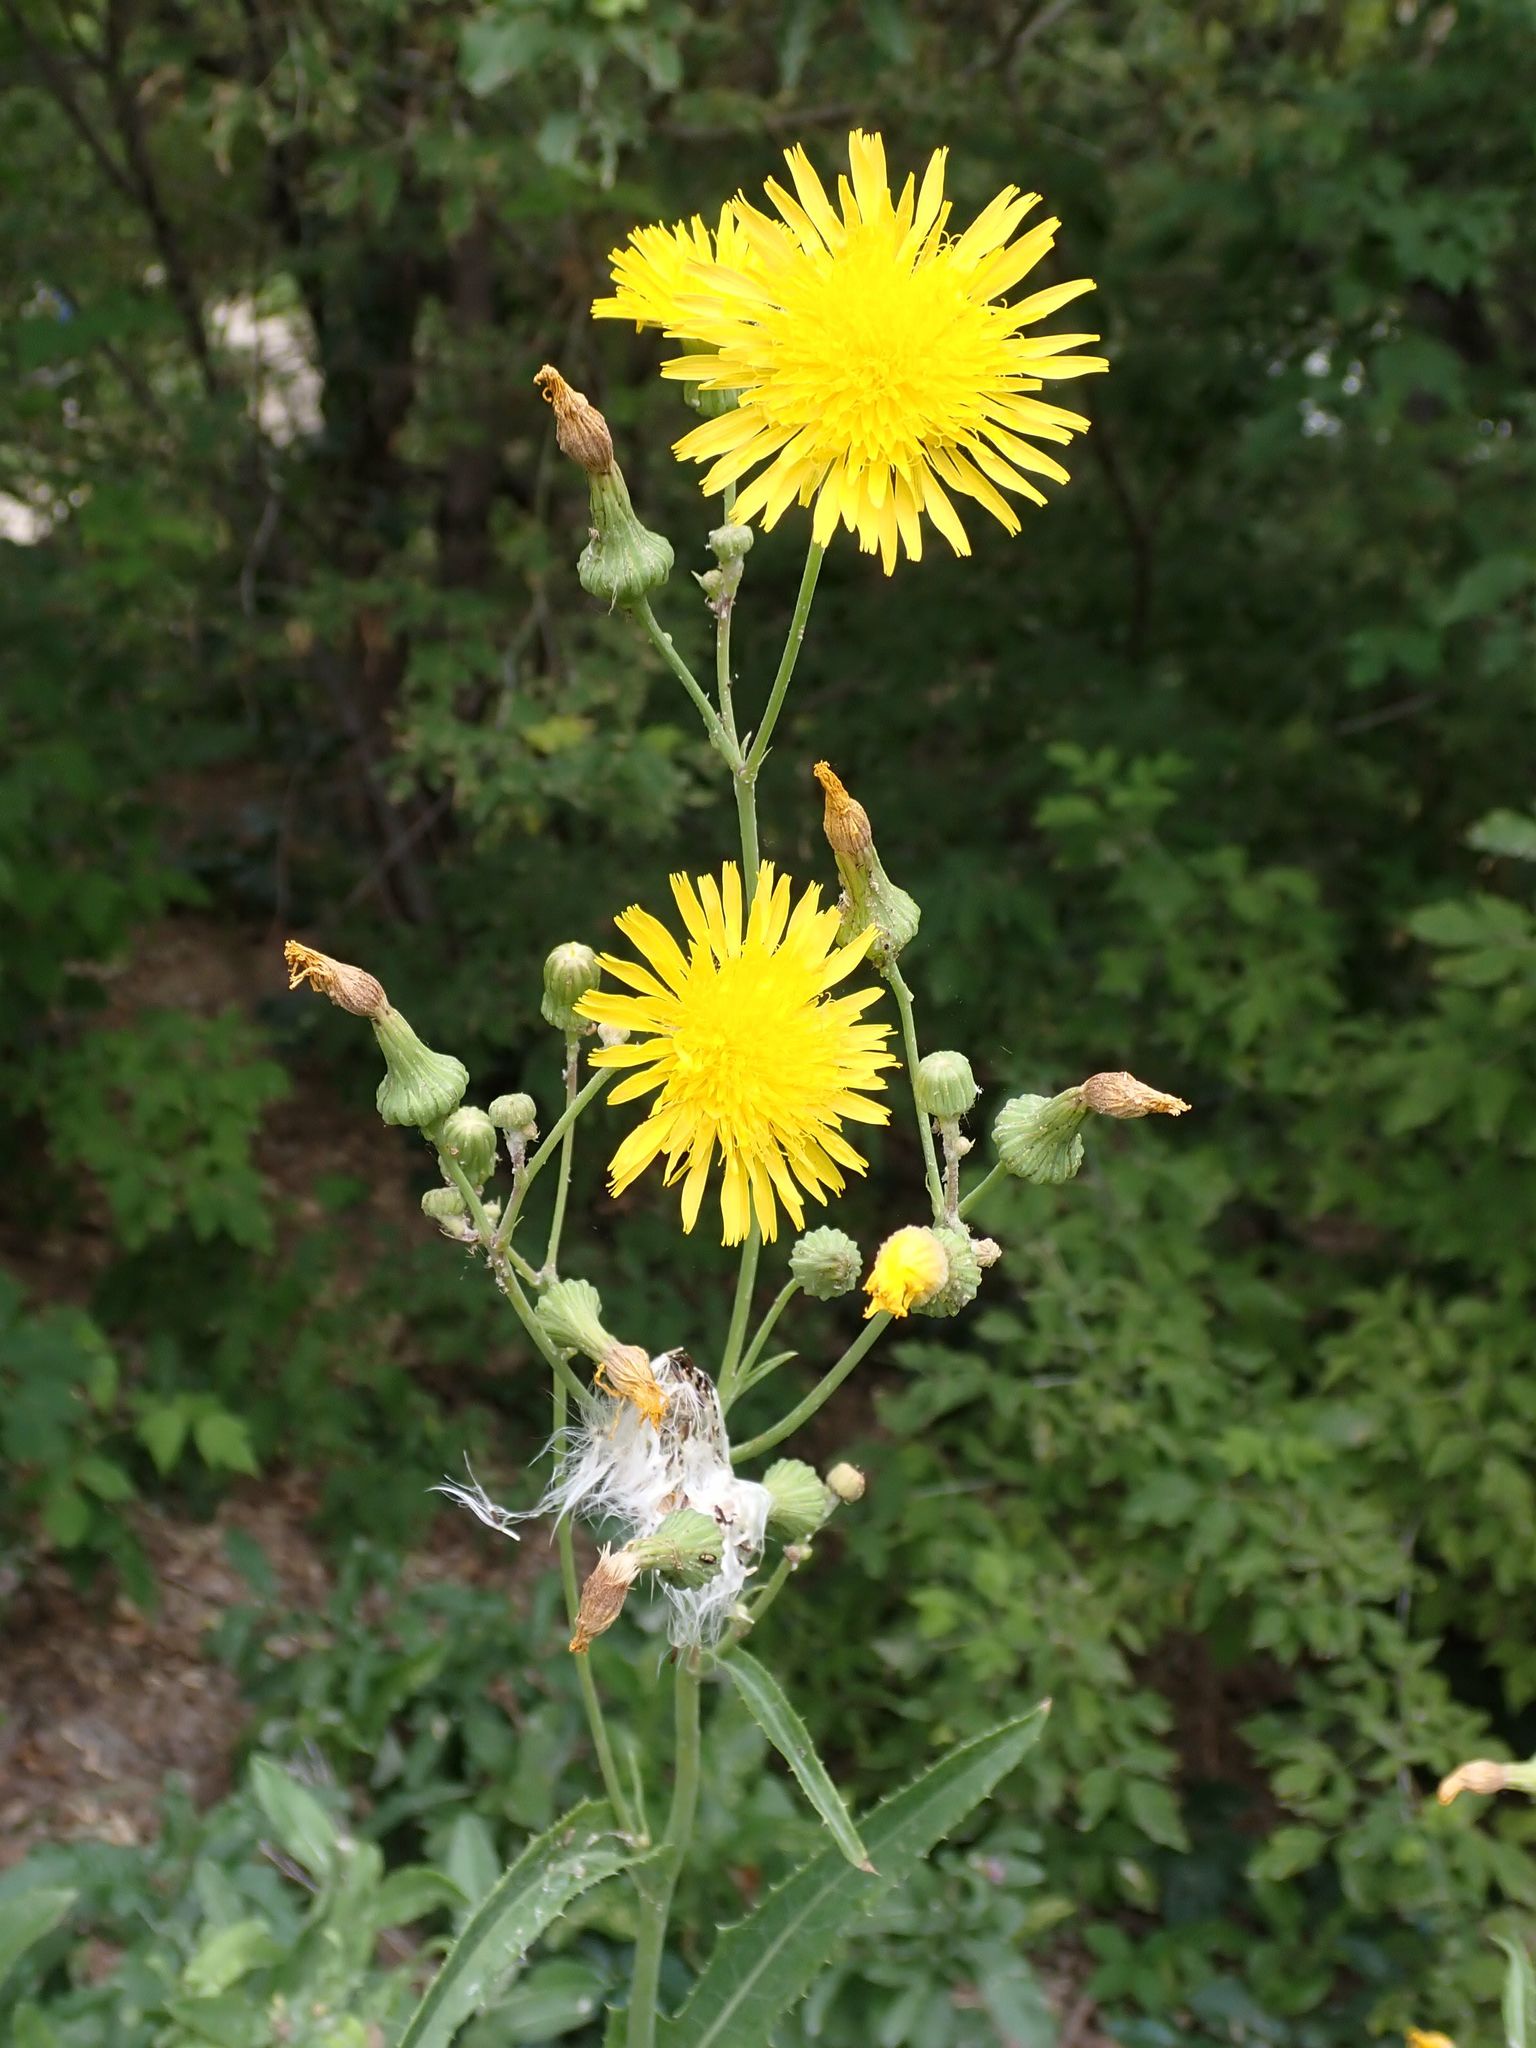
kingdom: Plantae
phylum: Tracheophyta
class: Magnoliopsida
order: Asterales
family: Asteraceae
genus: Sonchus
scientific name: Sonchus arvensis
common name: Perennial sow-thistle
